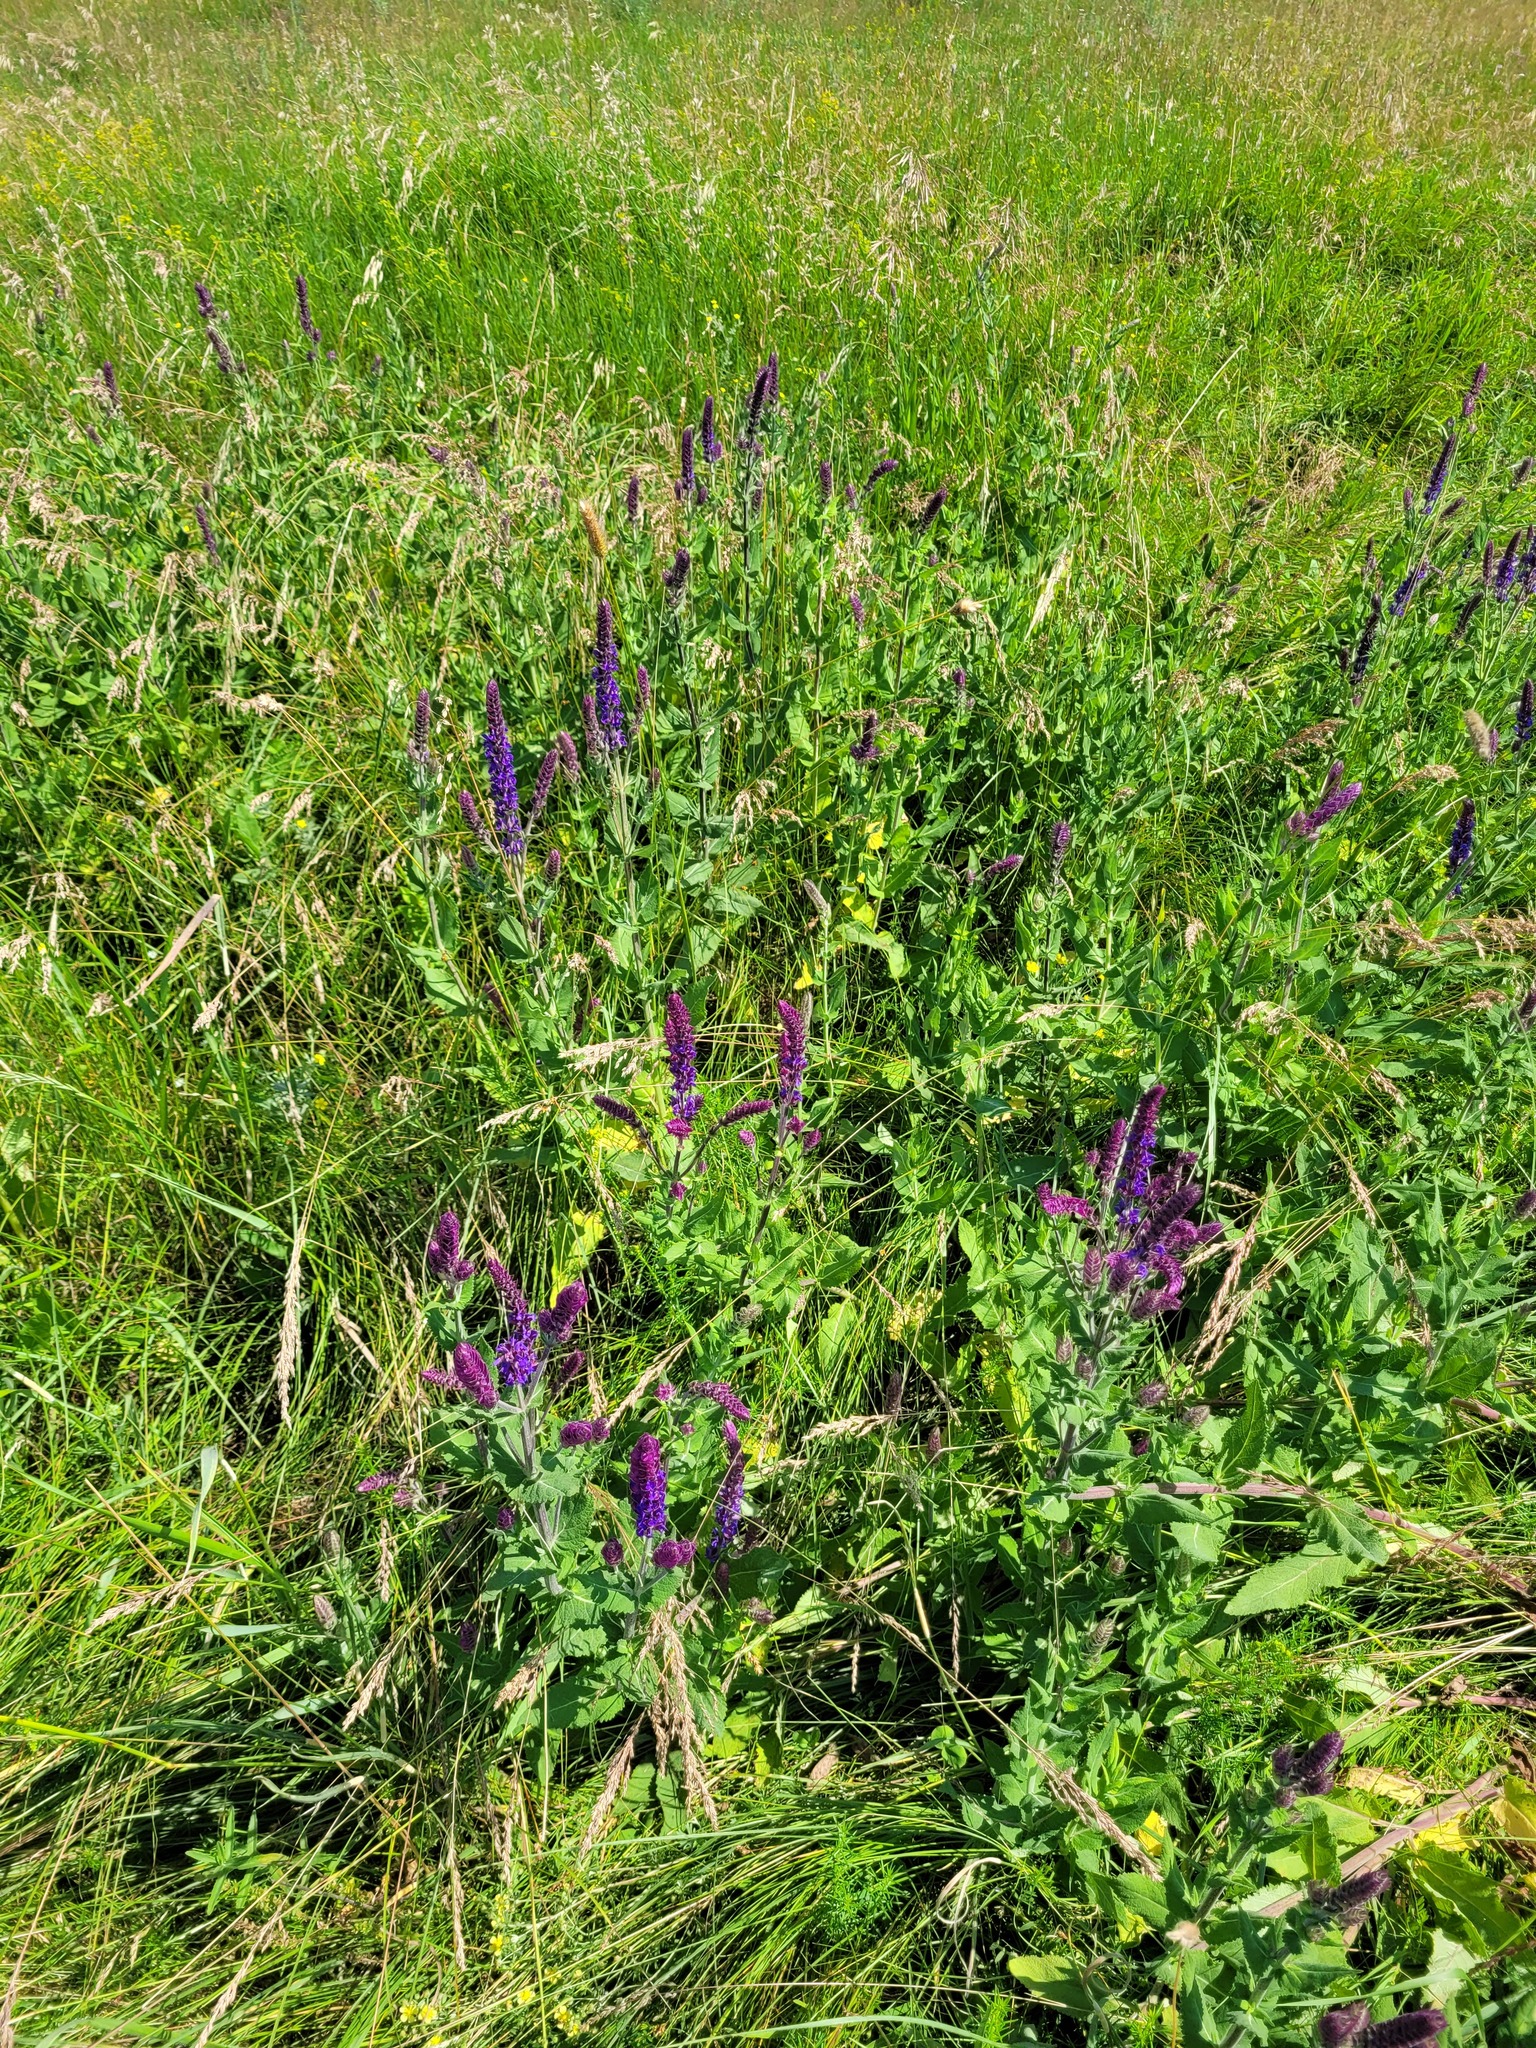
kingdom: Plantae
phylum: Tracheophyta
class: Magnoliopsida
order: Lamiales
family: Lamiaceae
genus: Salvia
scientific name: Salvia nemorosa
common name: Balkan clary
